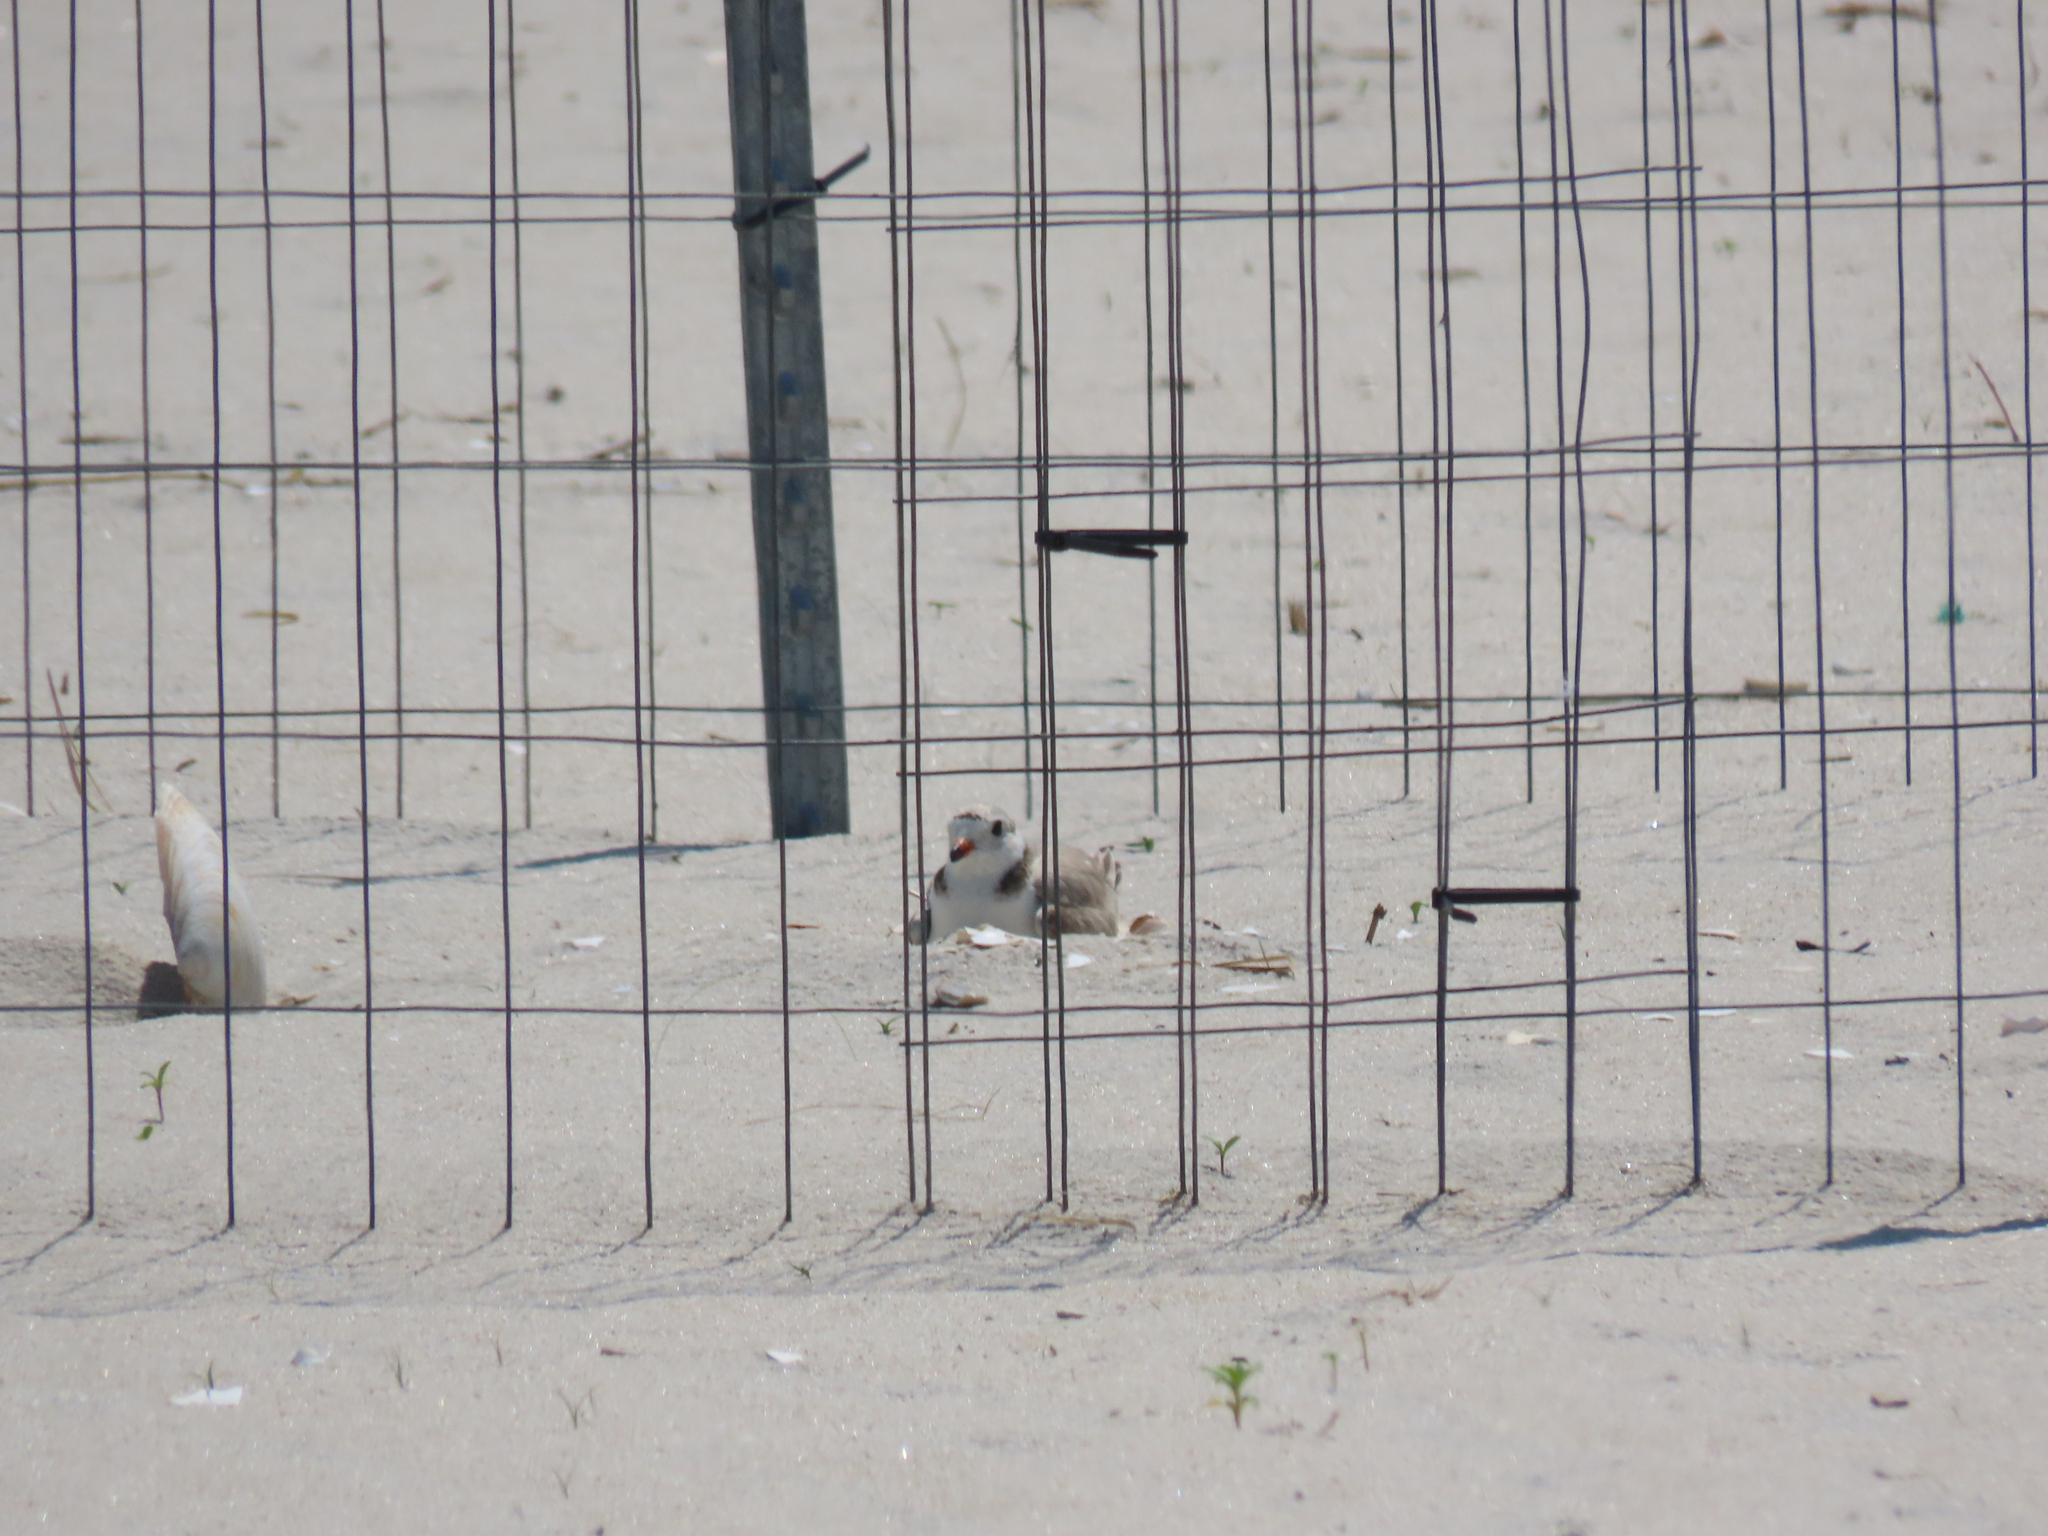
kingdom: Animalia
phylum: Chordata
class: Aves
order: Charadriiformes
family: Charadriidae
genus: Charadrius
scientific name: Charadrius melodus
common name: Piping plover
